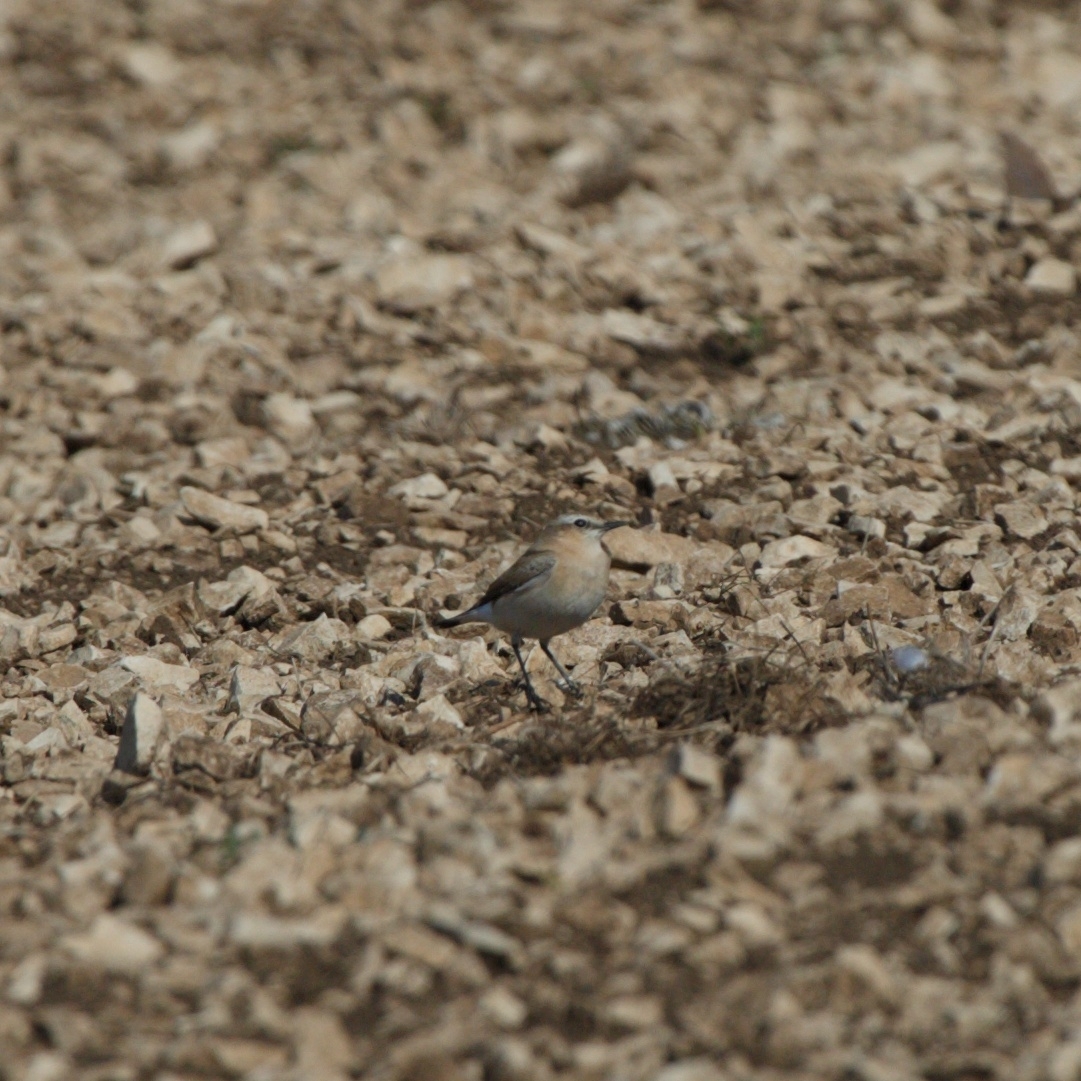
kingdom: Animalia
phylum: Chordata
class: Aves
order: Passeriformes
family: Muscicapidae
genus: Oenanthe
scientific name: Oenanthe oenanthe
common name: Northern wheatear
